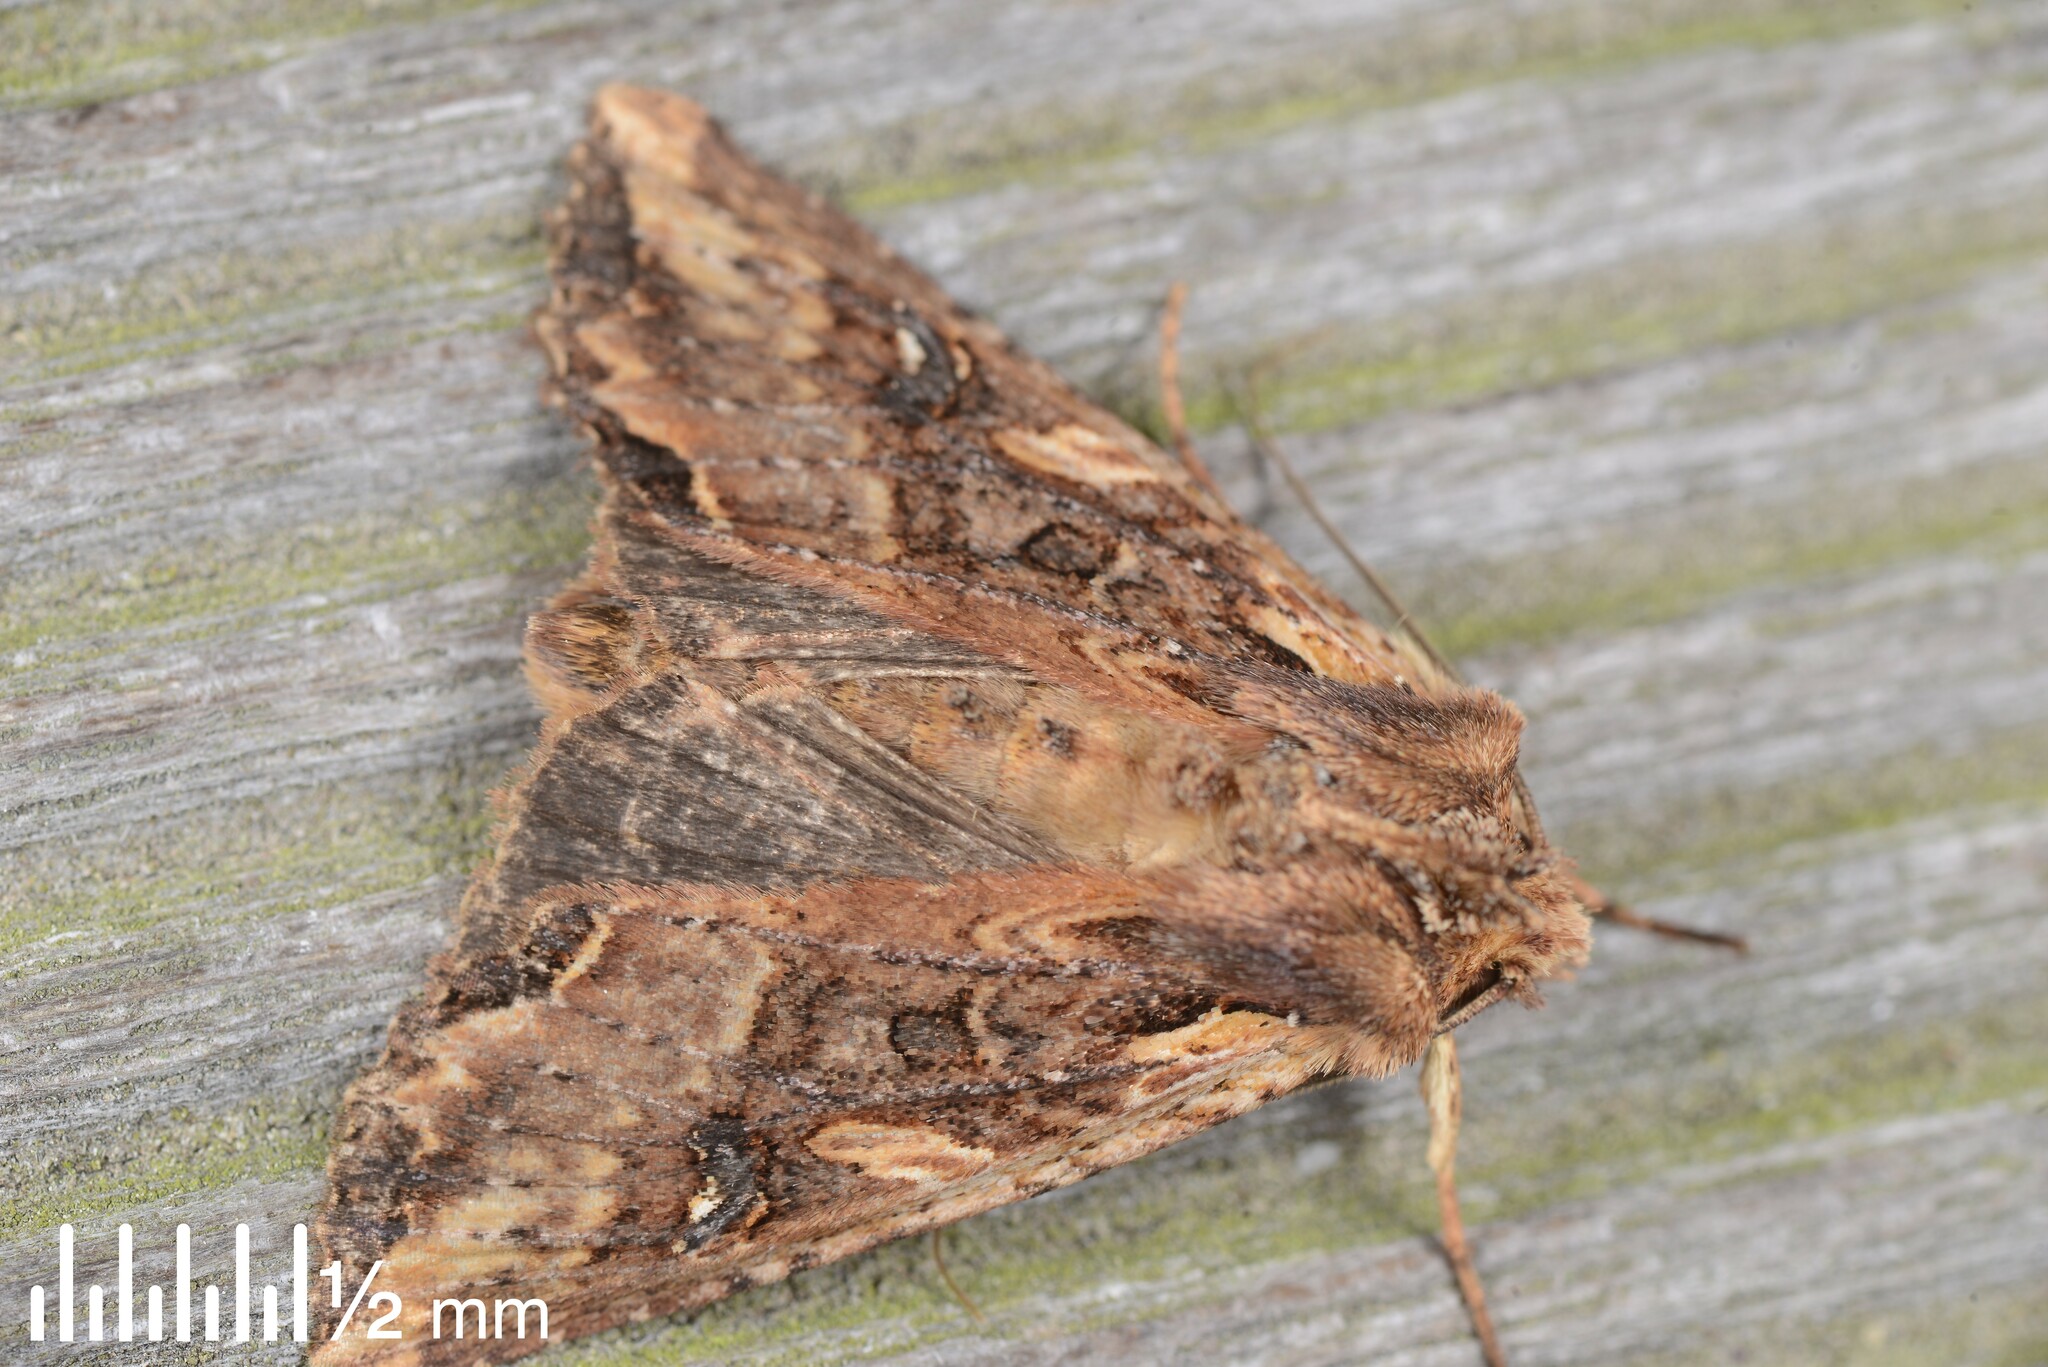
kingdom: Animalia
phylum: Arthropoda
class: Insecta
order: Lepidoptera
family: Noctuidae
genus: Meterana
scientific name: Meterana stipata
